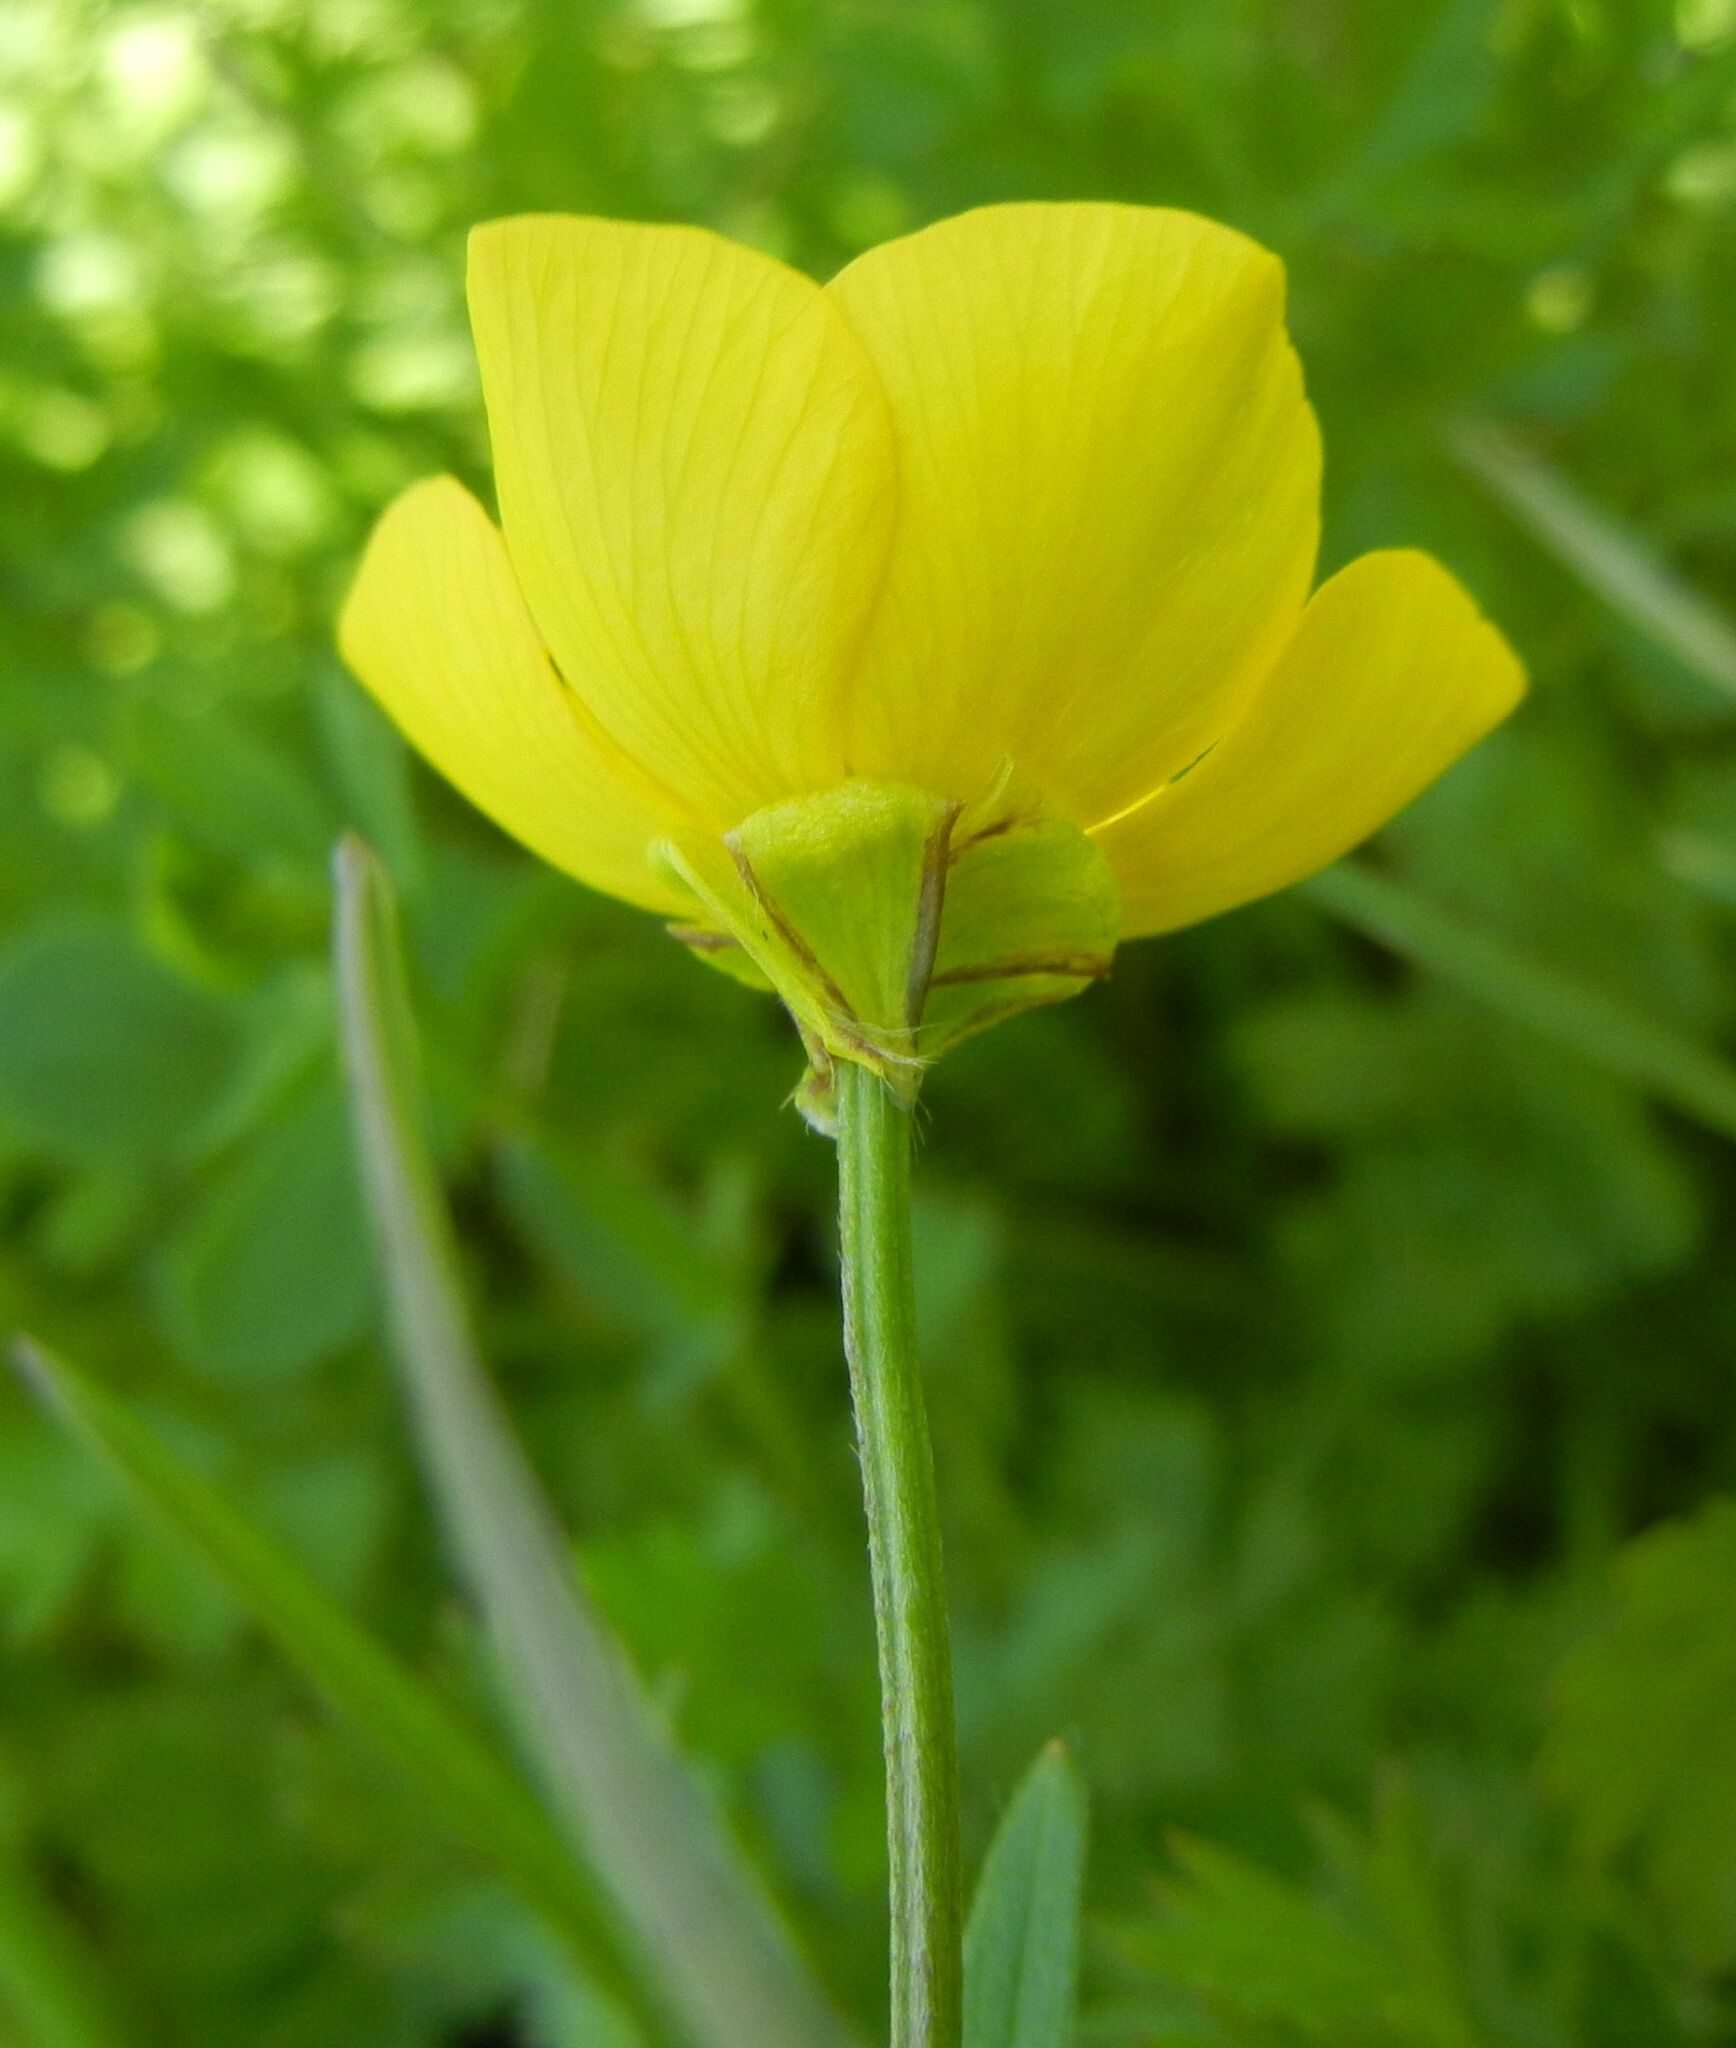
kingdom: Plantae
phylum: Tracheophyta
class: Magnoliopsida
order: Ranunculales
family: Ranunculaceae
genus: Ranunculus
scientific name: Ranunculus bulbosus
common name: Bulbous buttercup
